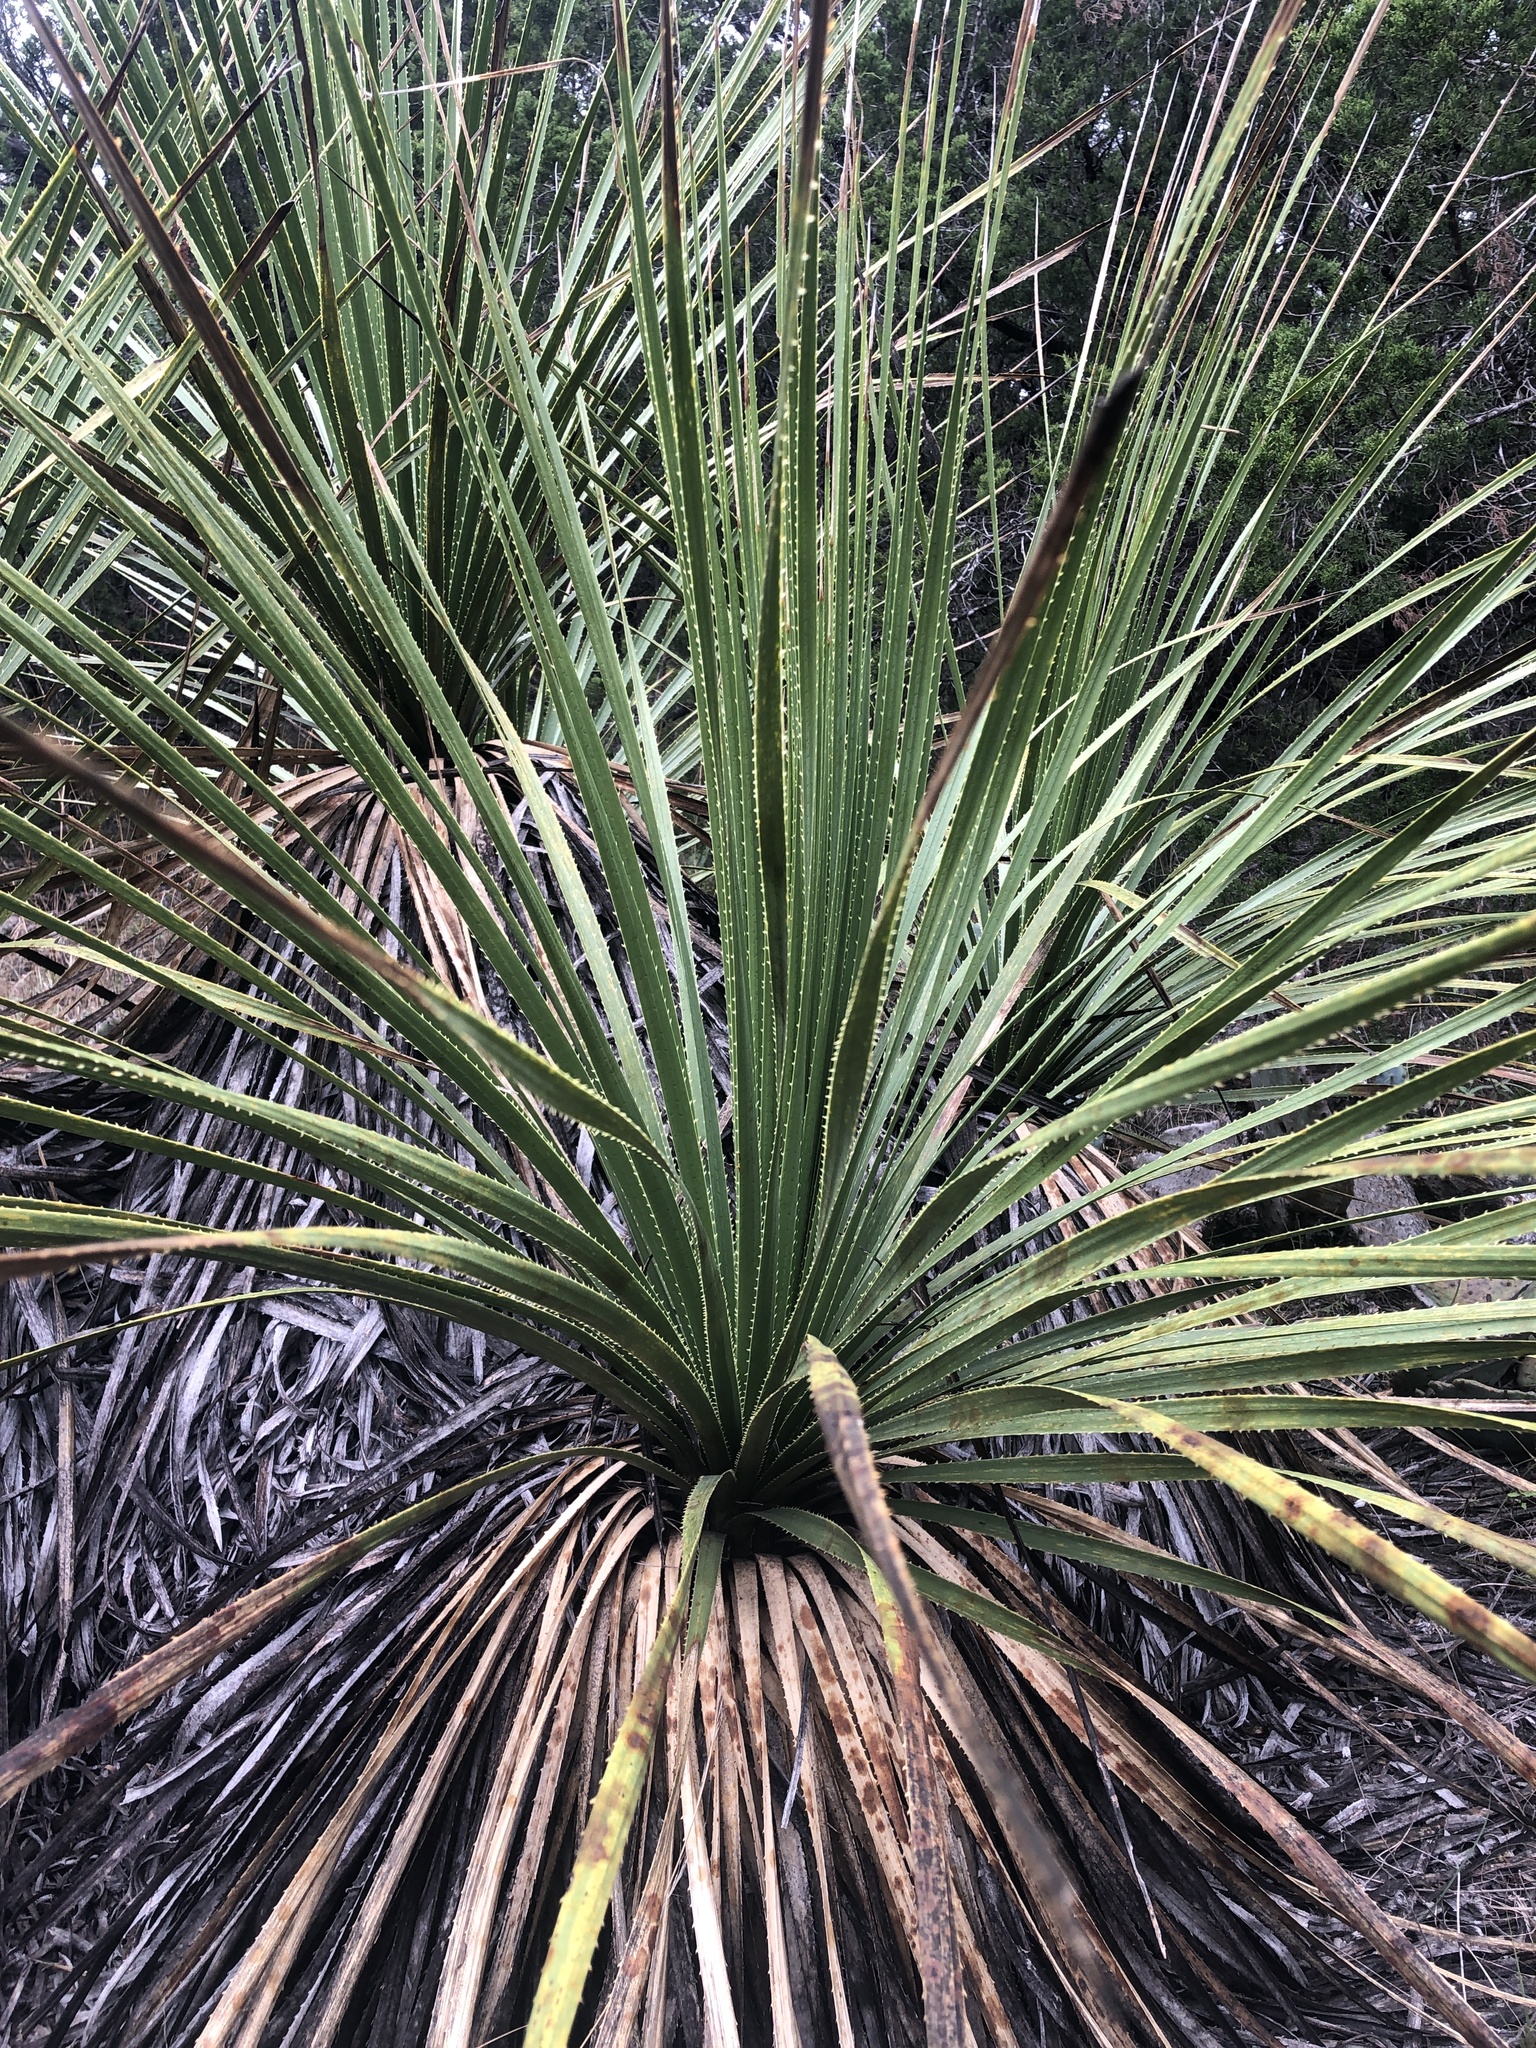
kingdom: Plantae
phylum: Tracheophyta
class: Liliopsida
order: Asparagales
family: Asparagaceae
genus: Dasylirion
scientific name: Dasylirion texanum
